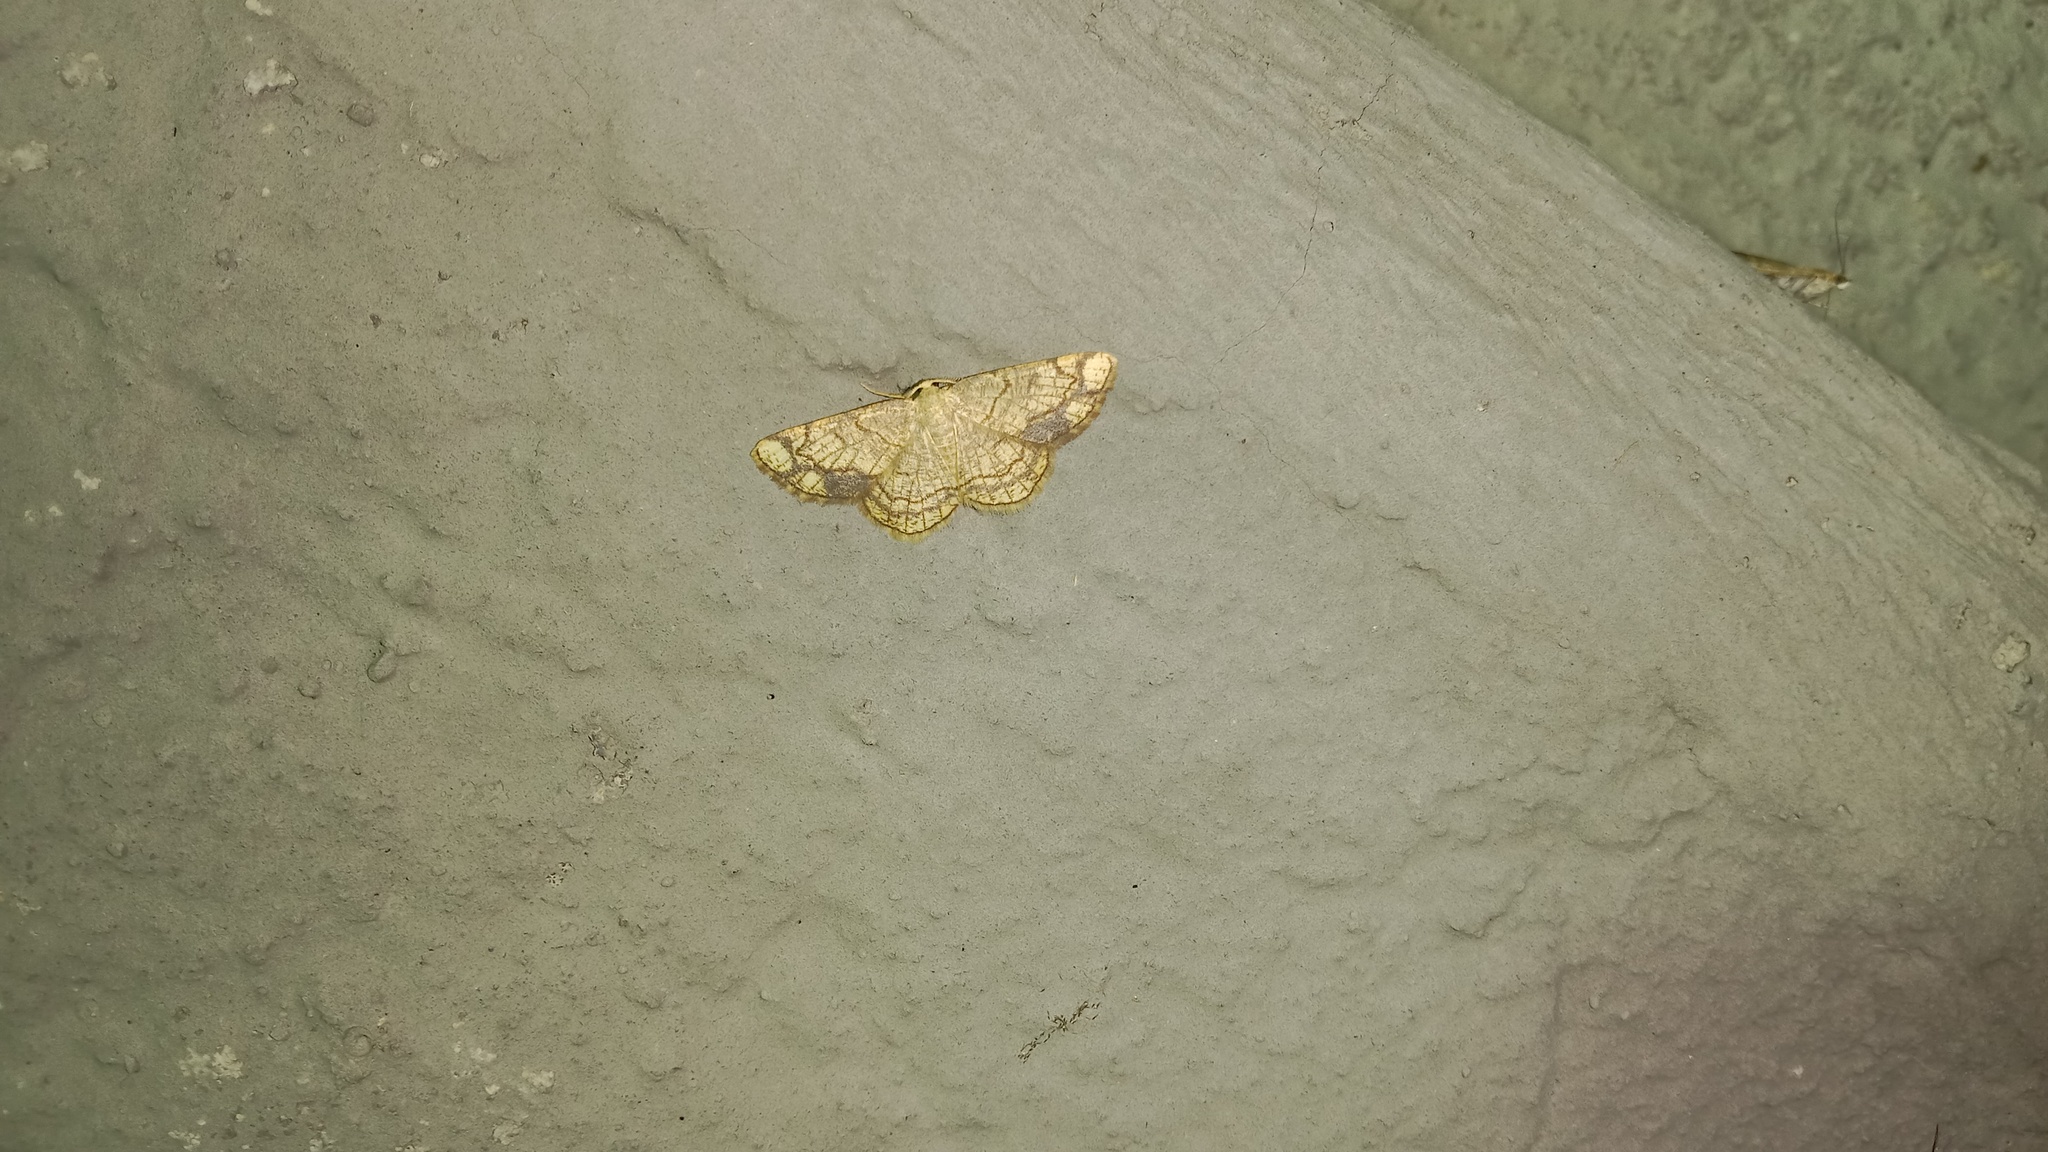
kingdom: Animalia
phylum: Arthropoda
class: Insecta
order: Lepidoptera
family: Geometridae
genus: Stegania
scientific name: Stegania dilectaria
